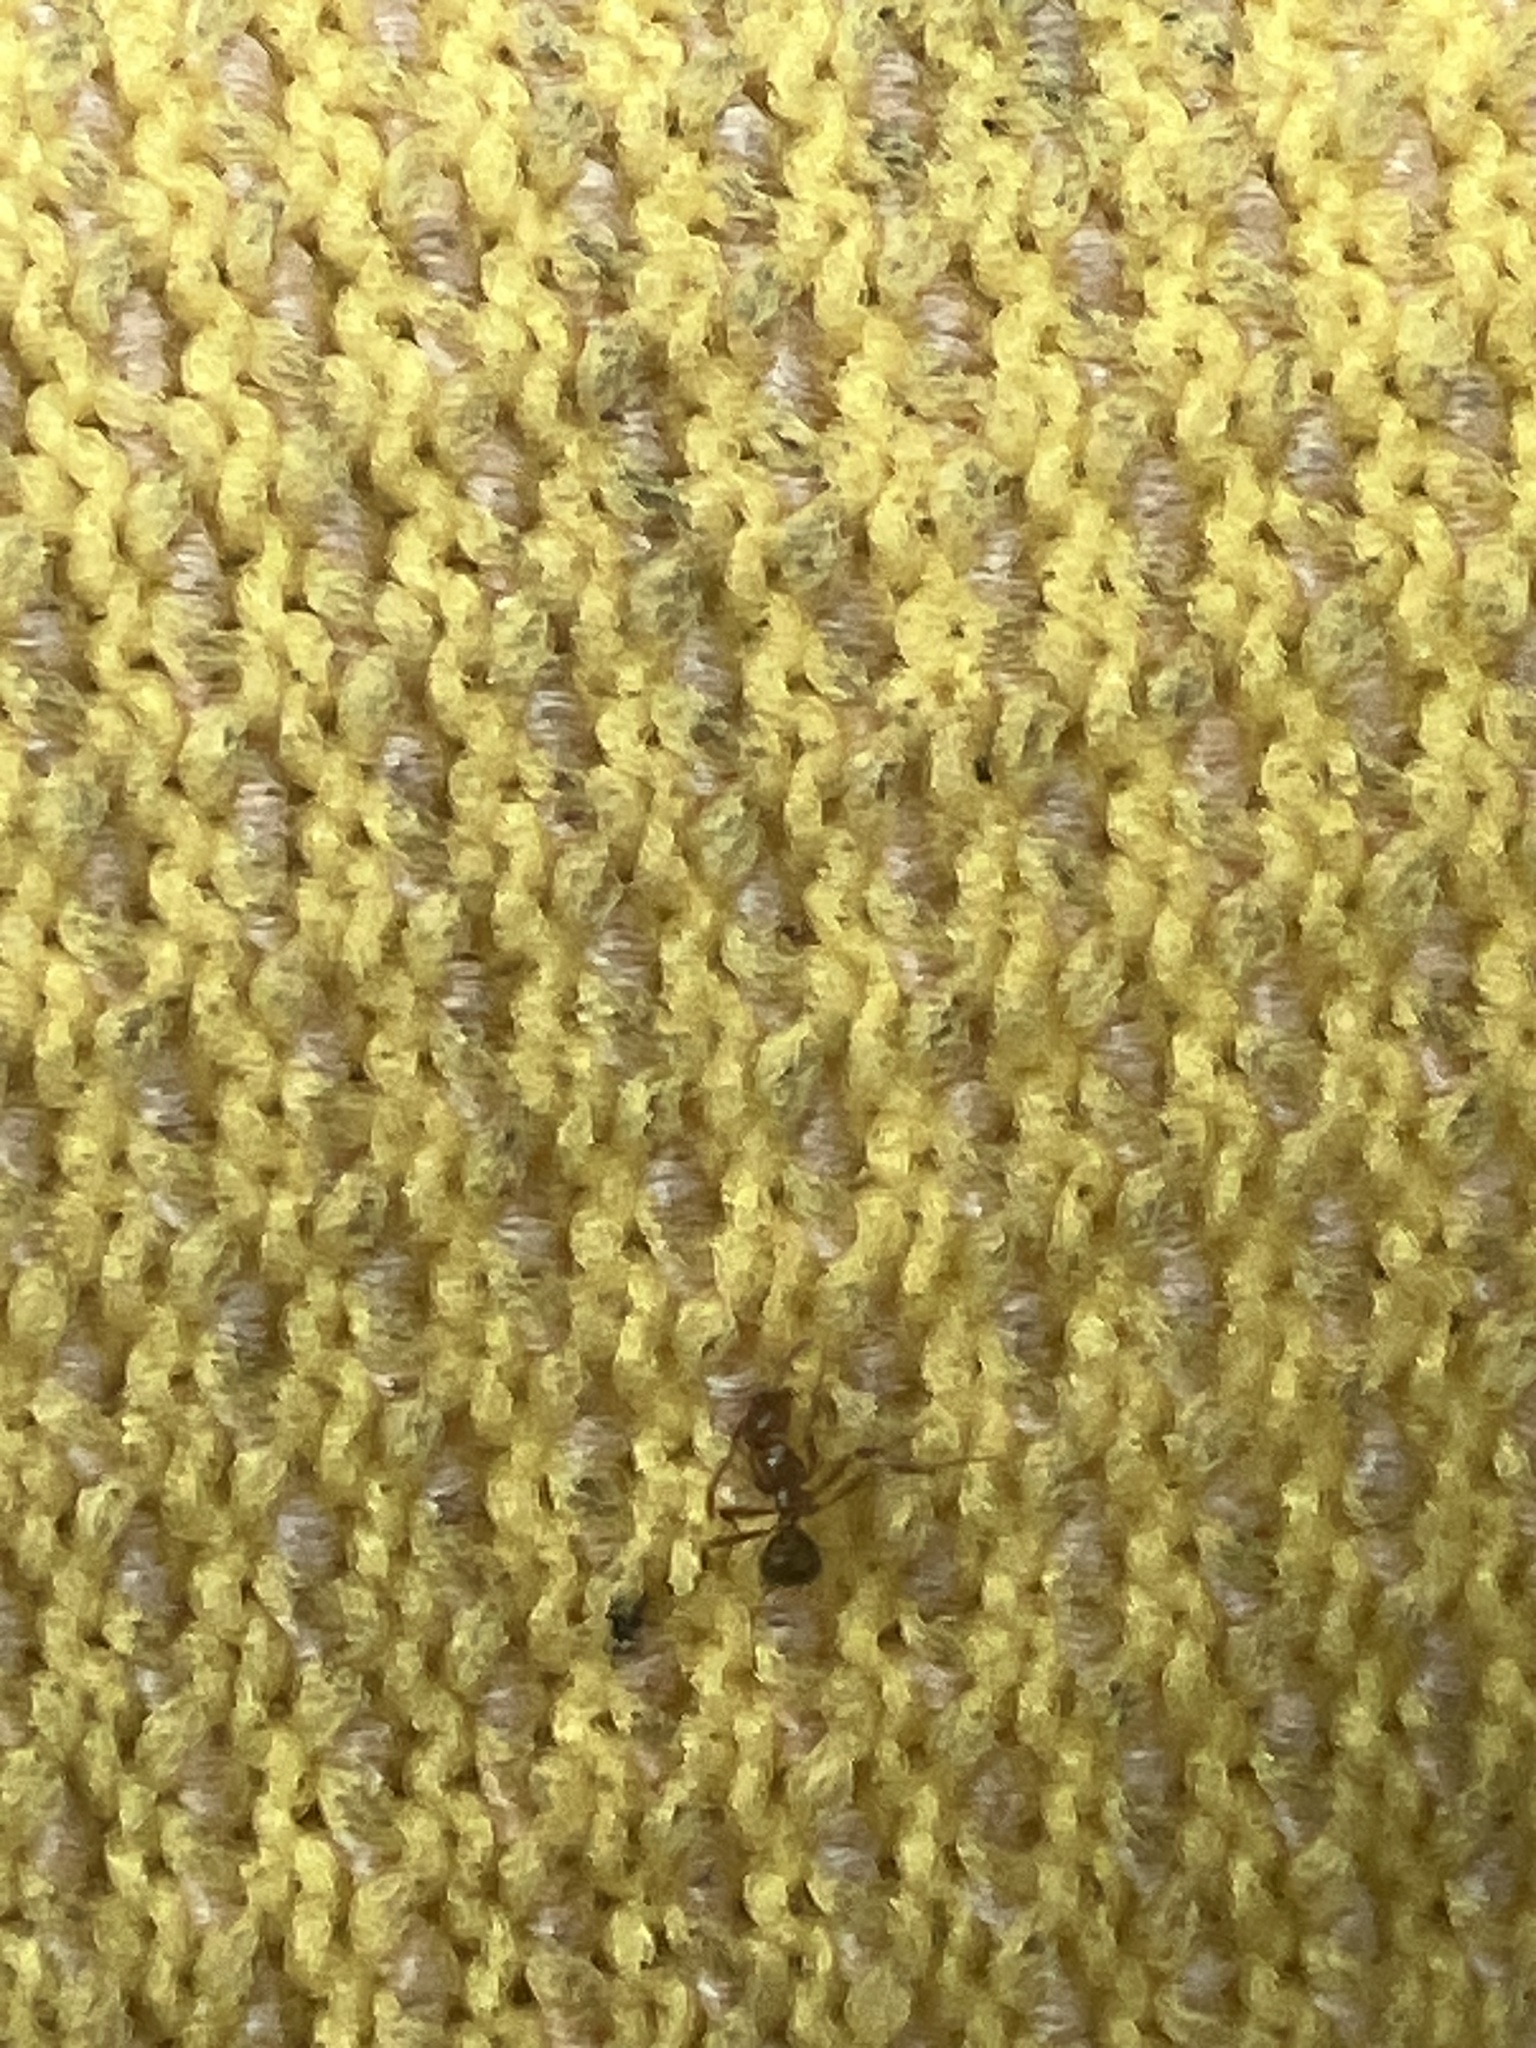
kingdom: Animalia
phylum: Arthropoda
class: Insecta
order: Hymenoptera
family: Formicidae
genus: Solenopsis
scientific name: Solenopsis invicta
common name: Red imported fire ant
